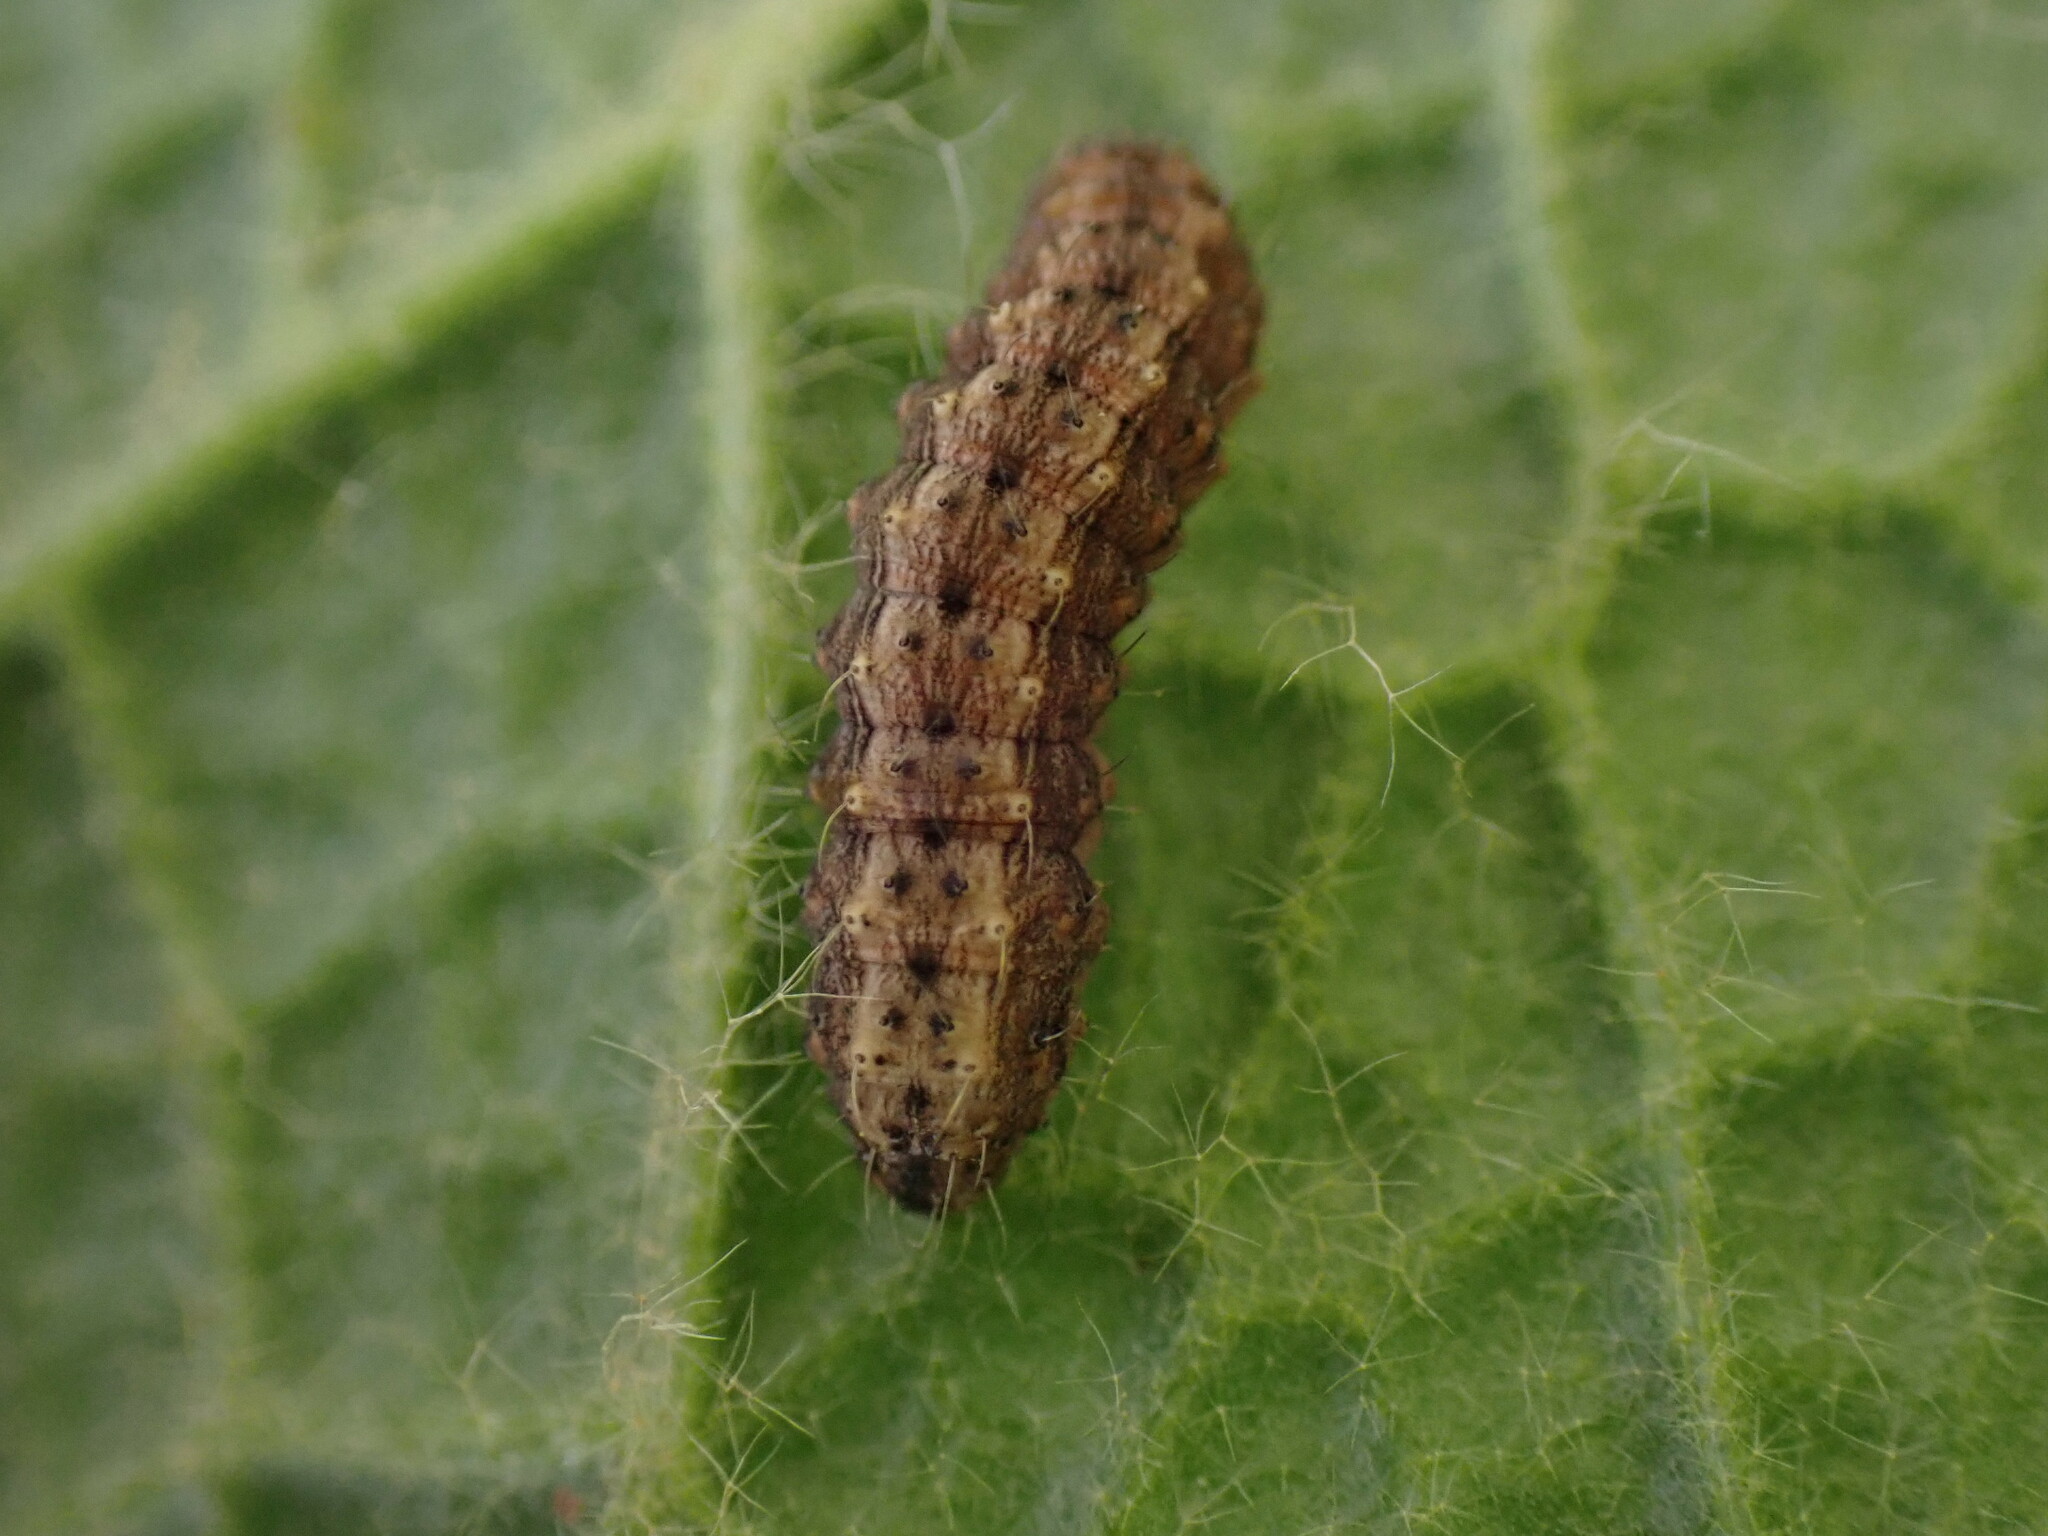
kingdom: Animalia
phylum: Arthropoda
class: Insecta
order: Lepidoptera
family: Noctuidae
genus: Hoplodrina
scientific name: Hoplodrina ambigua
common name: Vine's rustic
